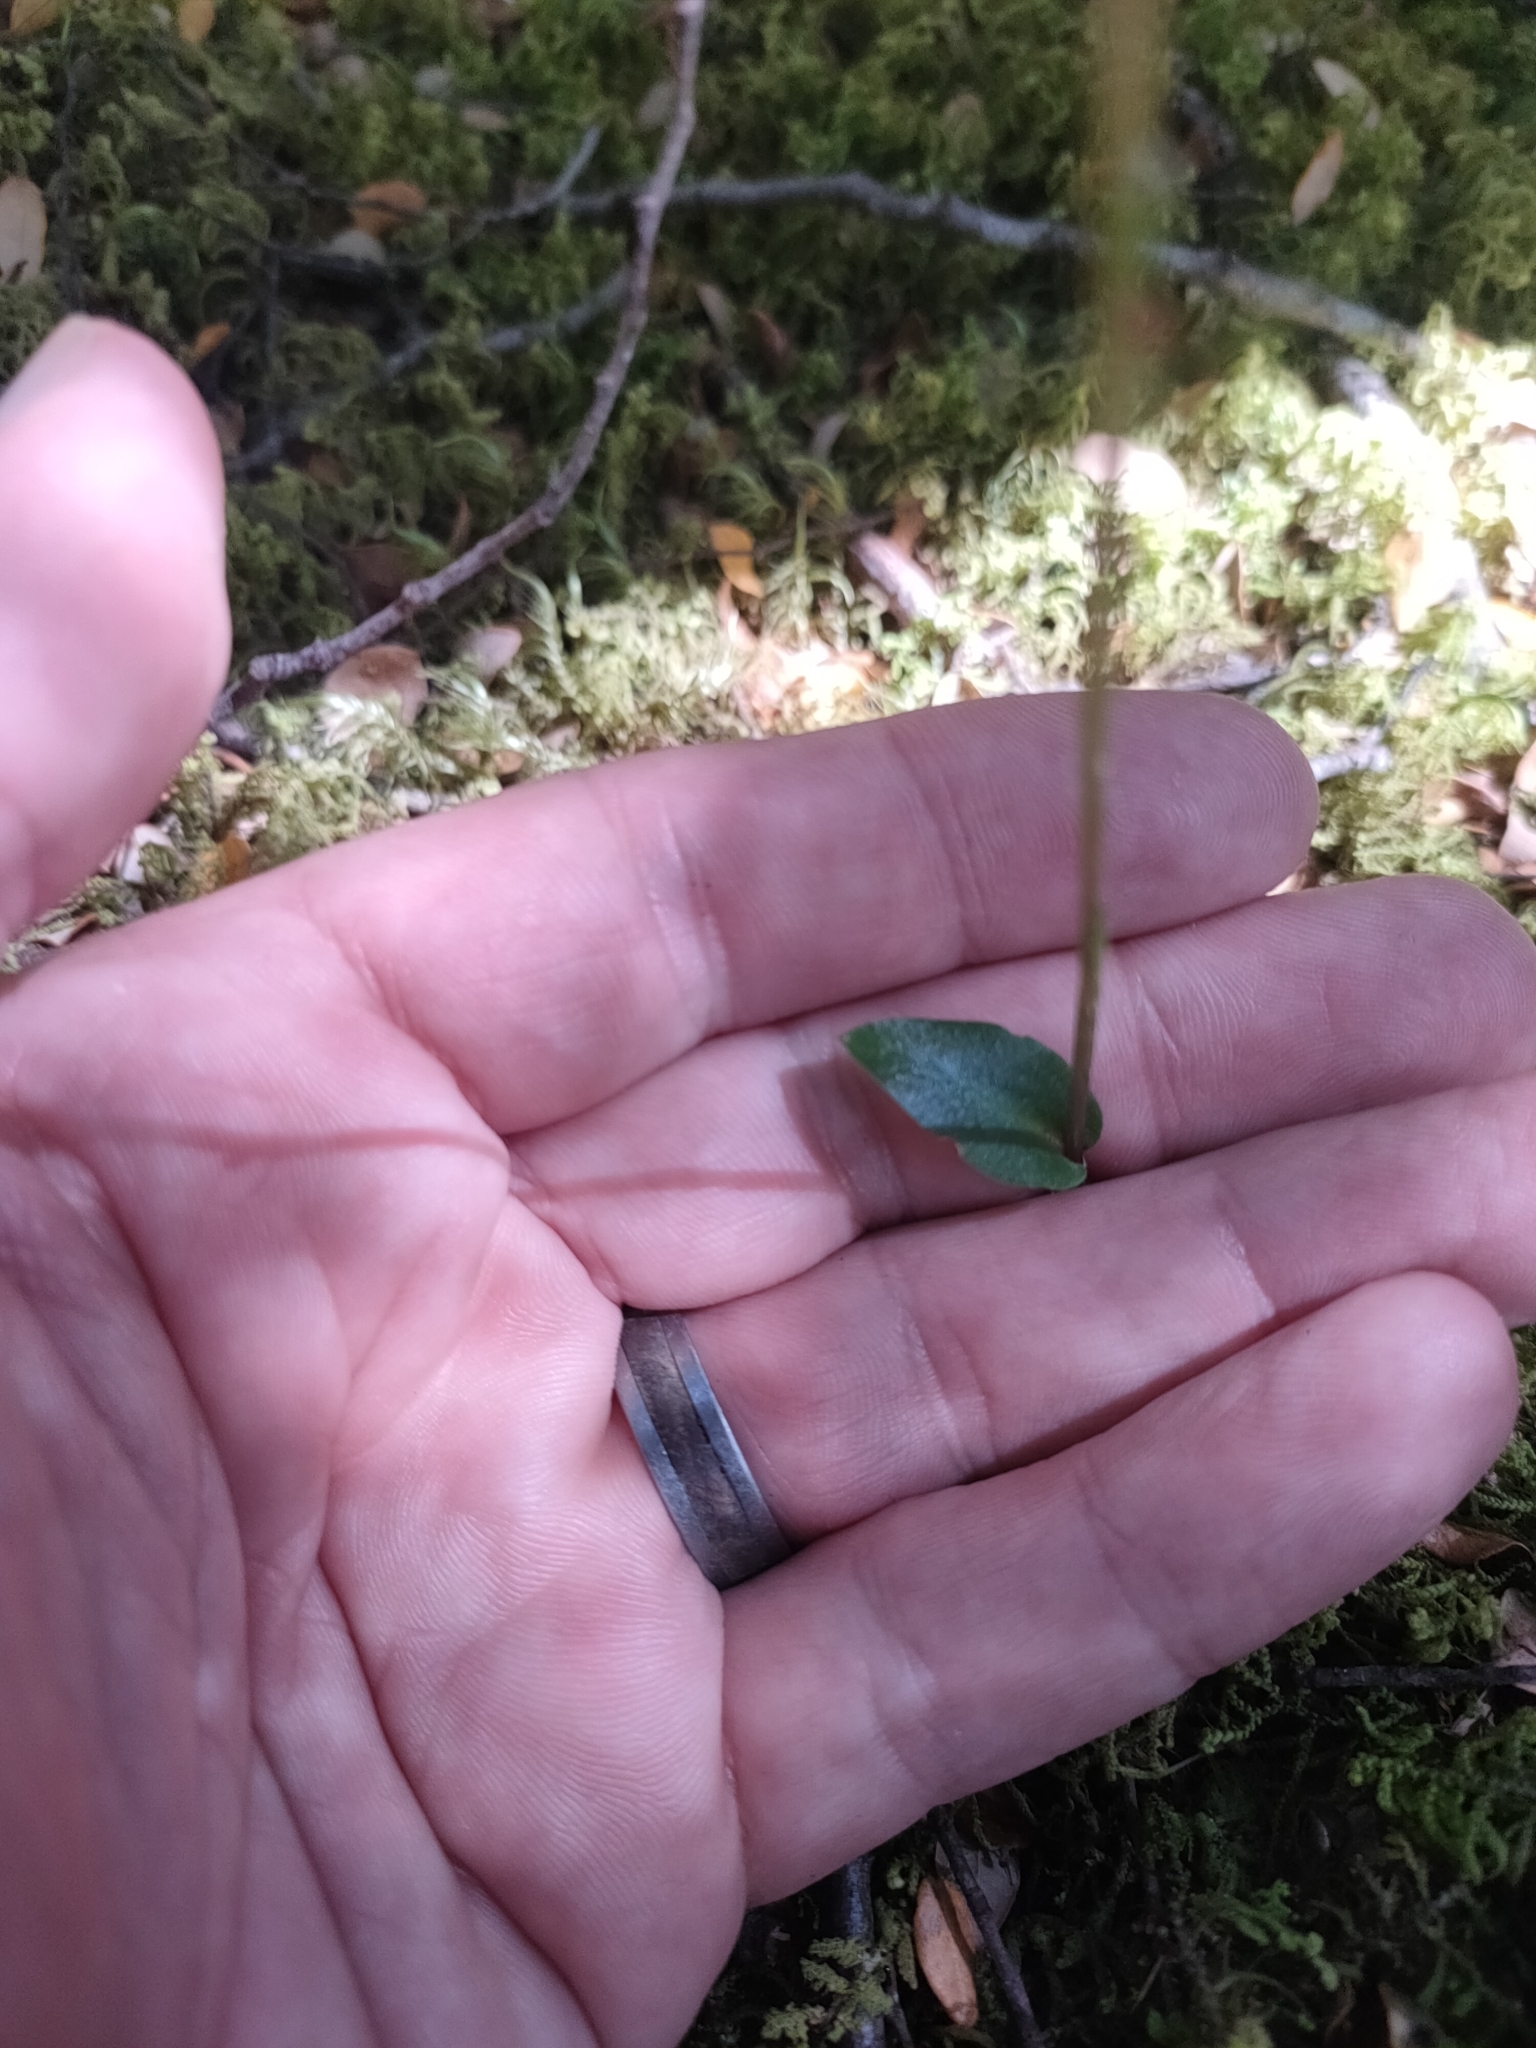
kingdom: Plantae
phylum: Tracheophyta
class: Liliopsida
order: Asparagales
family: Orchidaceae
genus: Adenochilus
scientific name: Adenochilus gracilis
